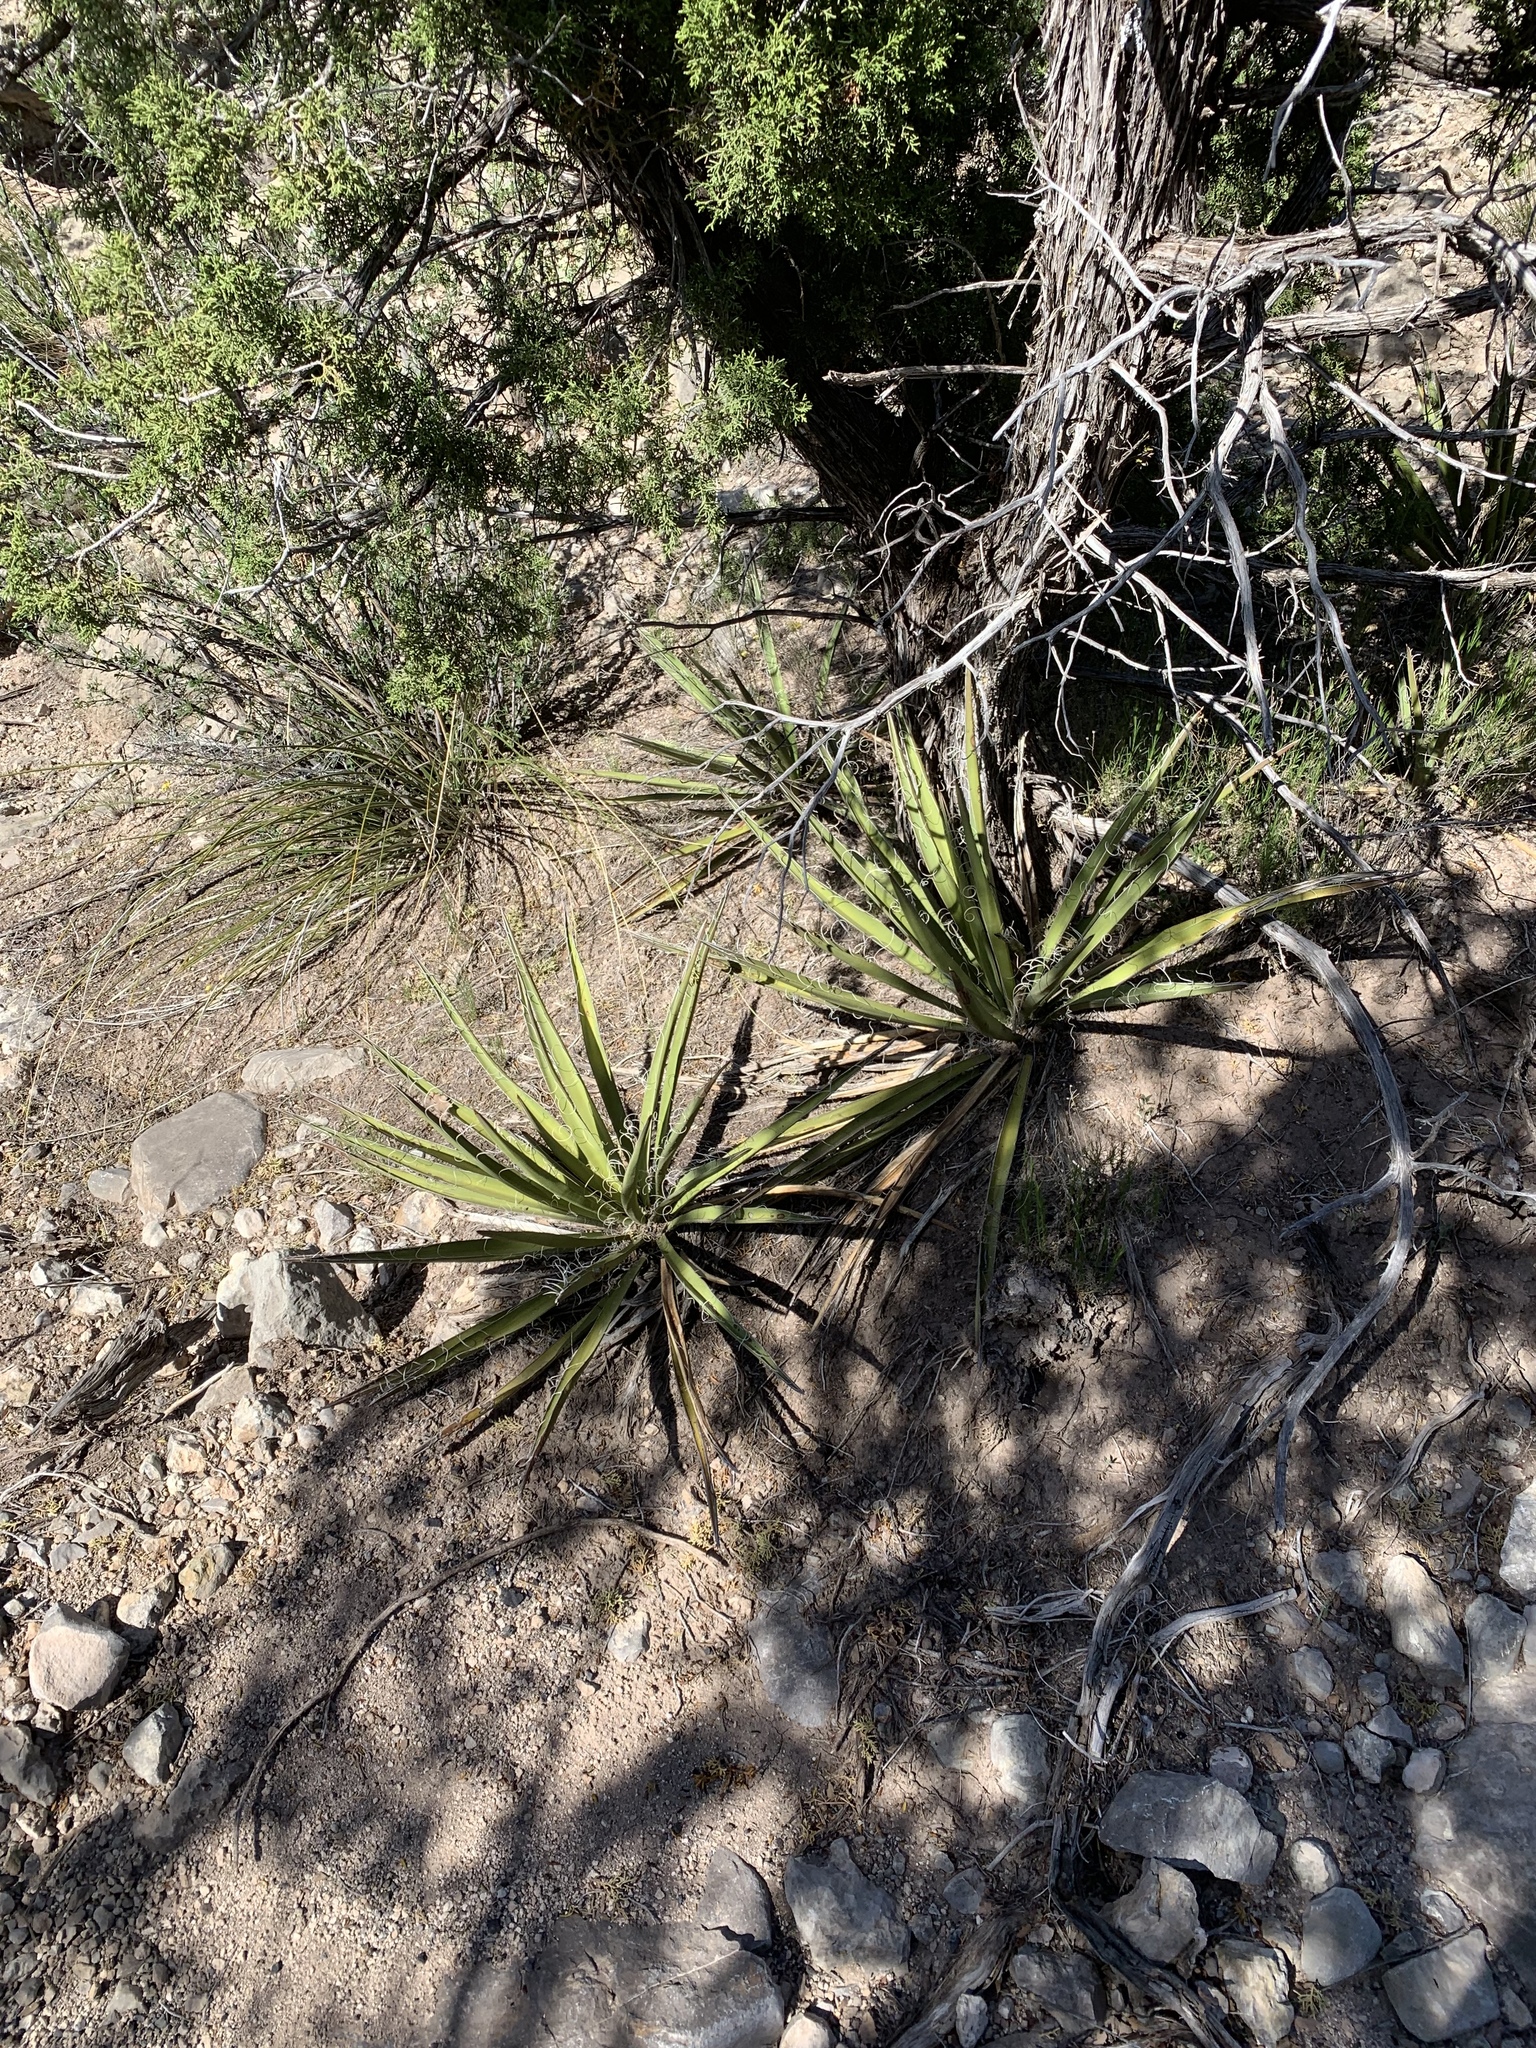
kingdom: Plantae
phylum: Tracheophyta
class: Liliopsida
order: Asparagales
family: Asparagaceae
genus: Yucca
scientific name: Yucca baccata
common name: Banana yucca
